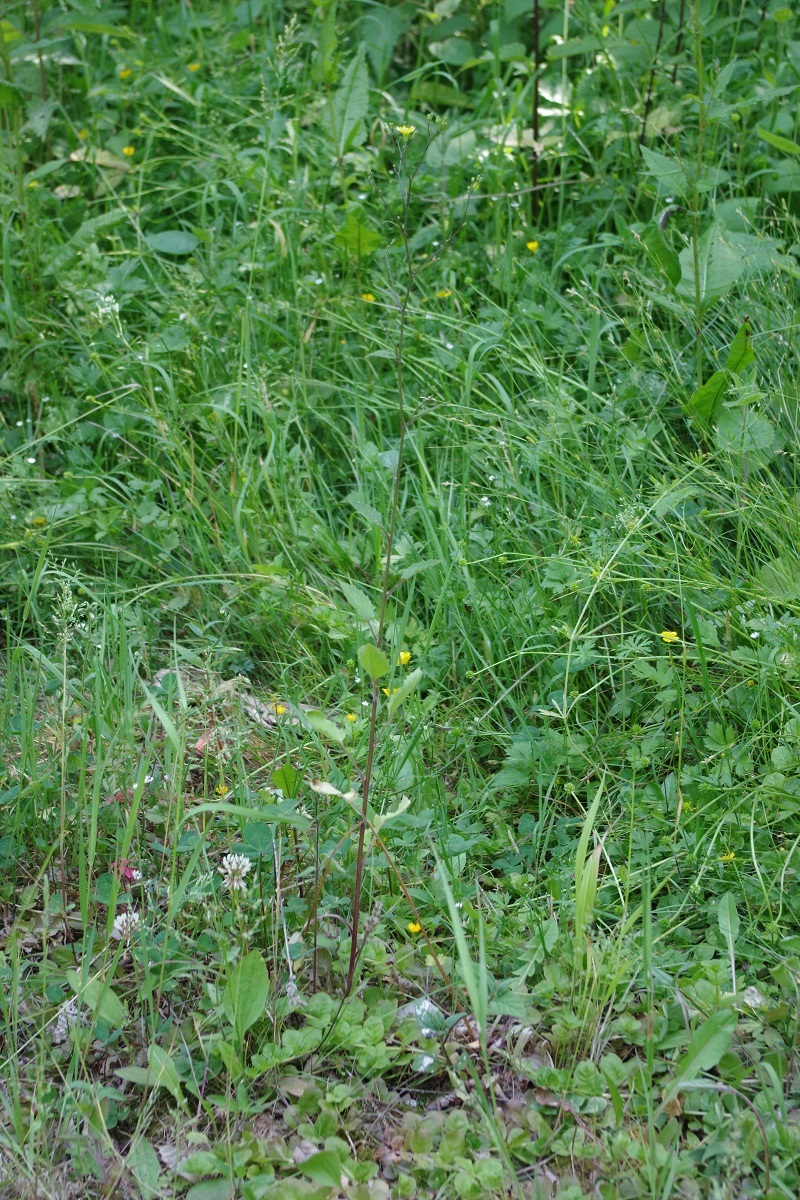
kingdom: Plantae
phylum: Tracheophyta
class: Magnoliopsida
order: Asterales
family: Asteraceae
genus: Lapsana
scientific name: Lapsana communis
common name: Nipplewort
